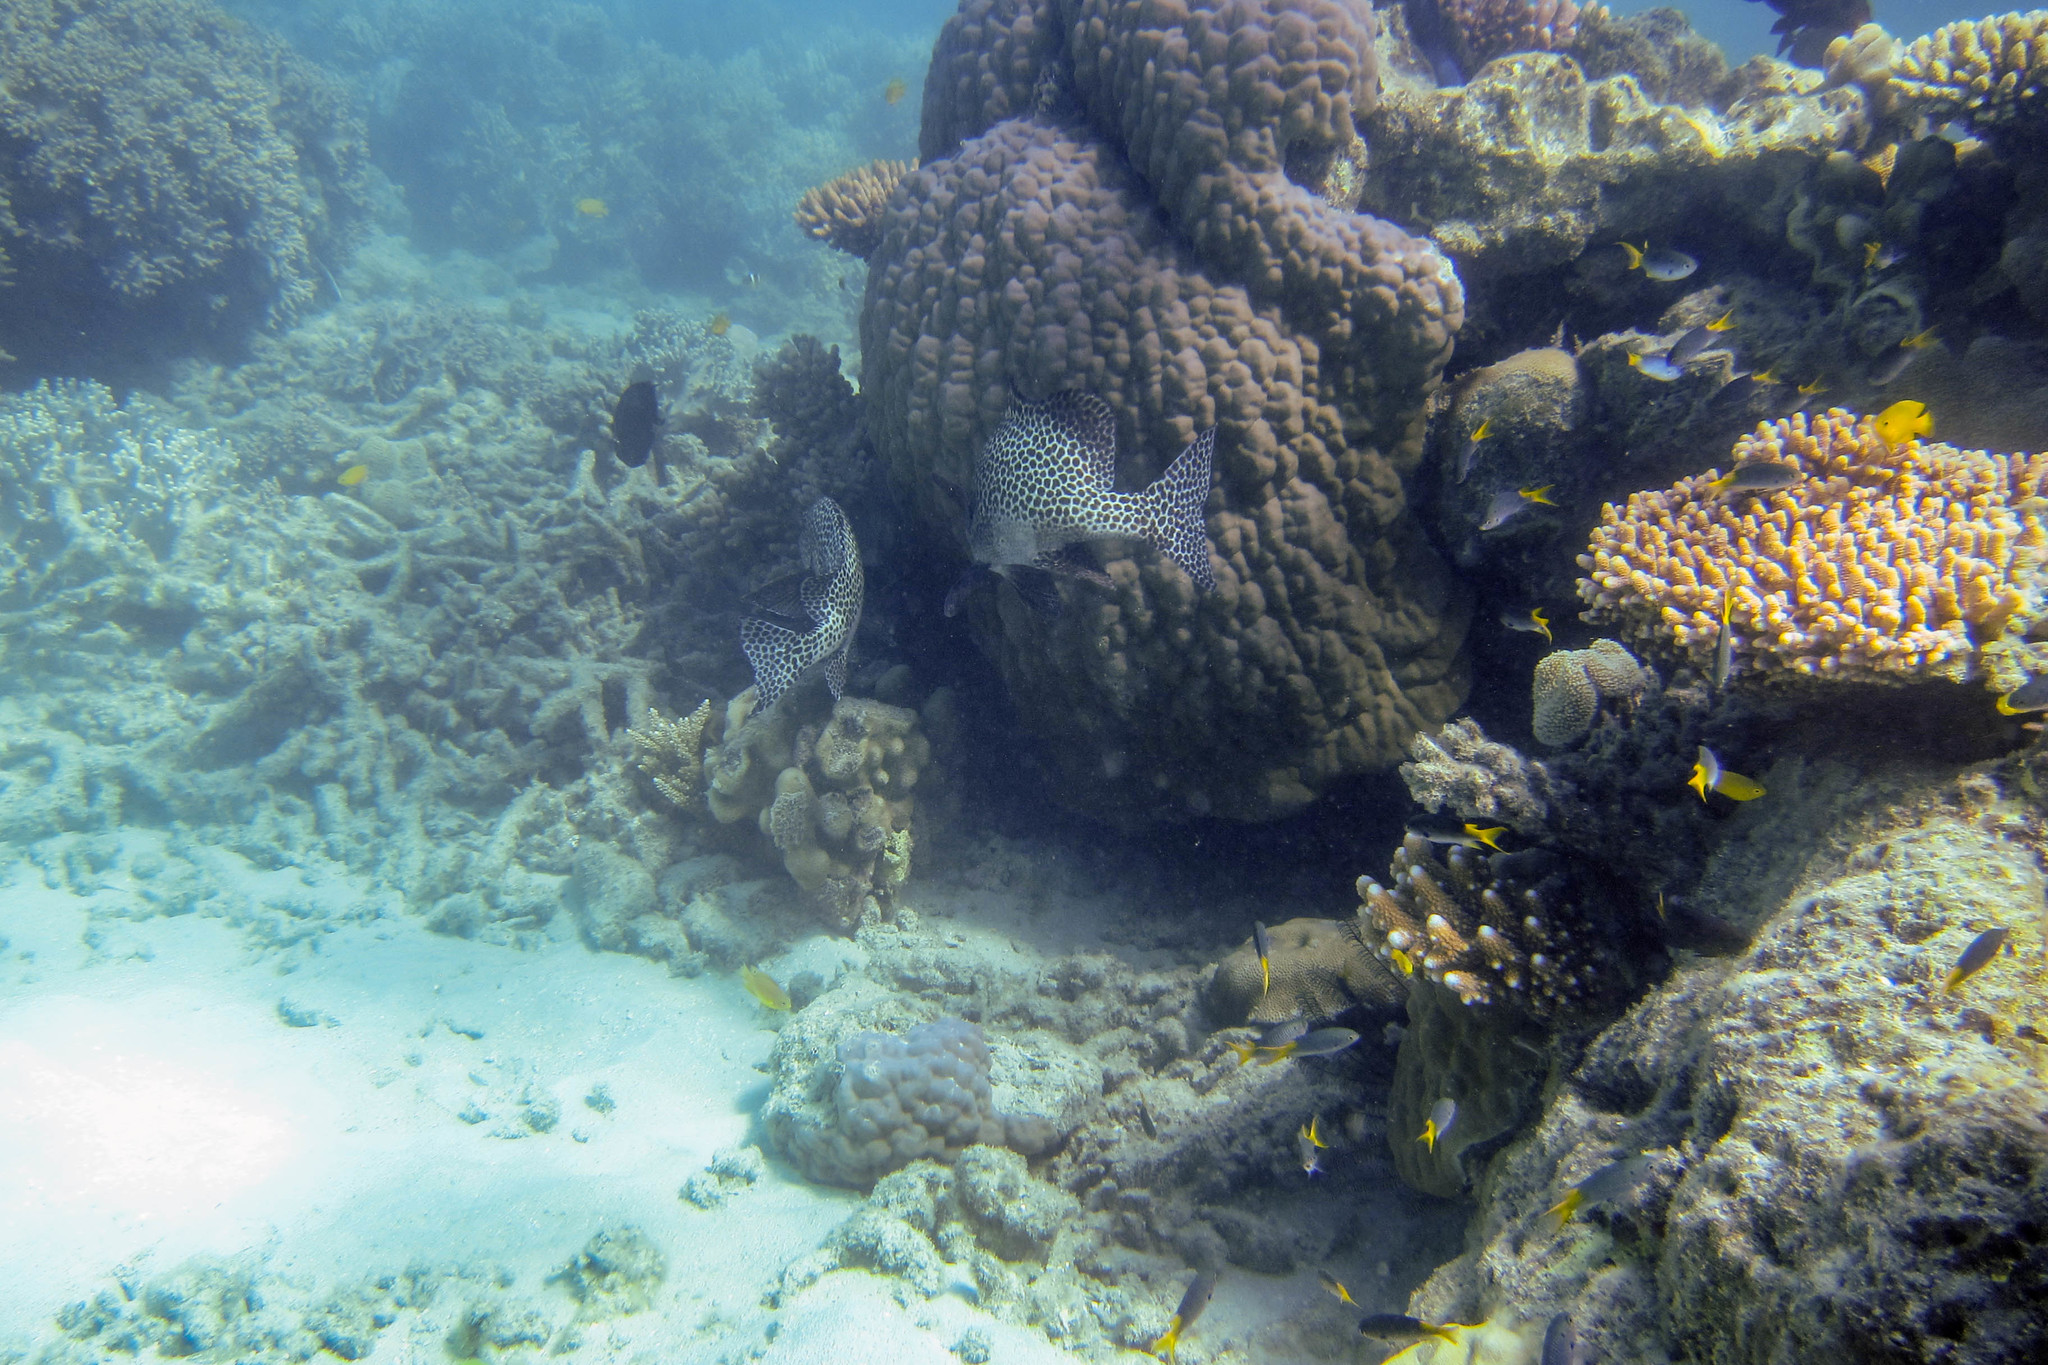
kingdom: Animalia
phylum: Chordata
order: Perciformes
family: Haemulidae
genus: Plectorhinchus
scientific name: Plectorhinchus chaetodonoides
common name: Harlequin sweetlips
